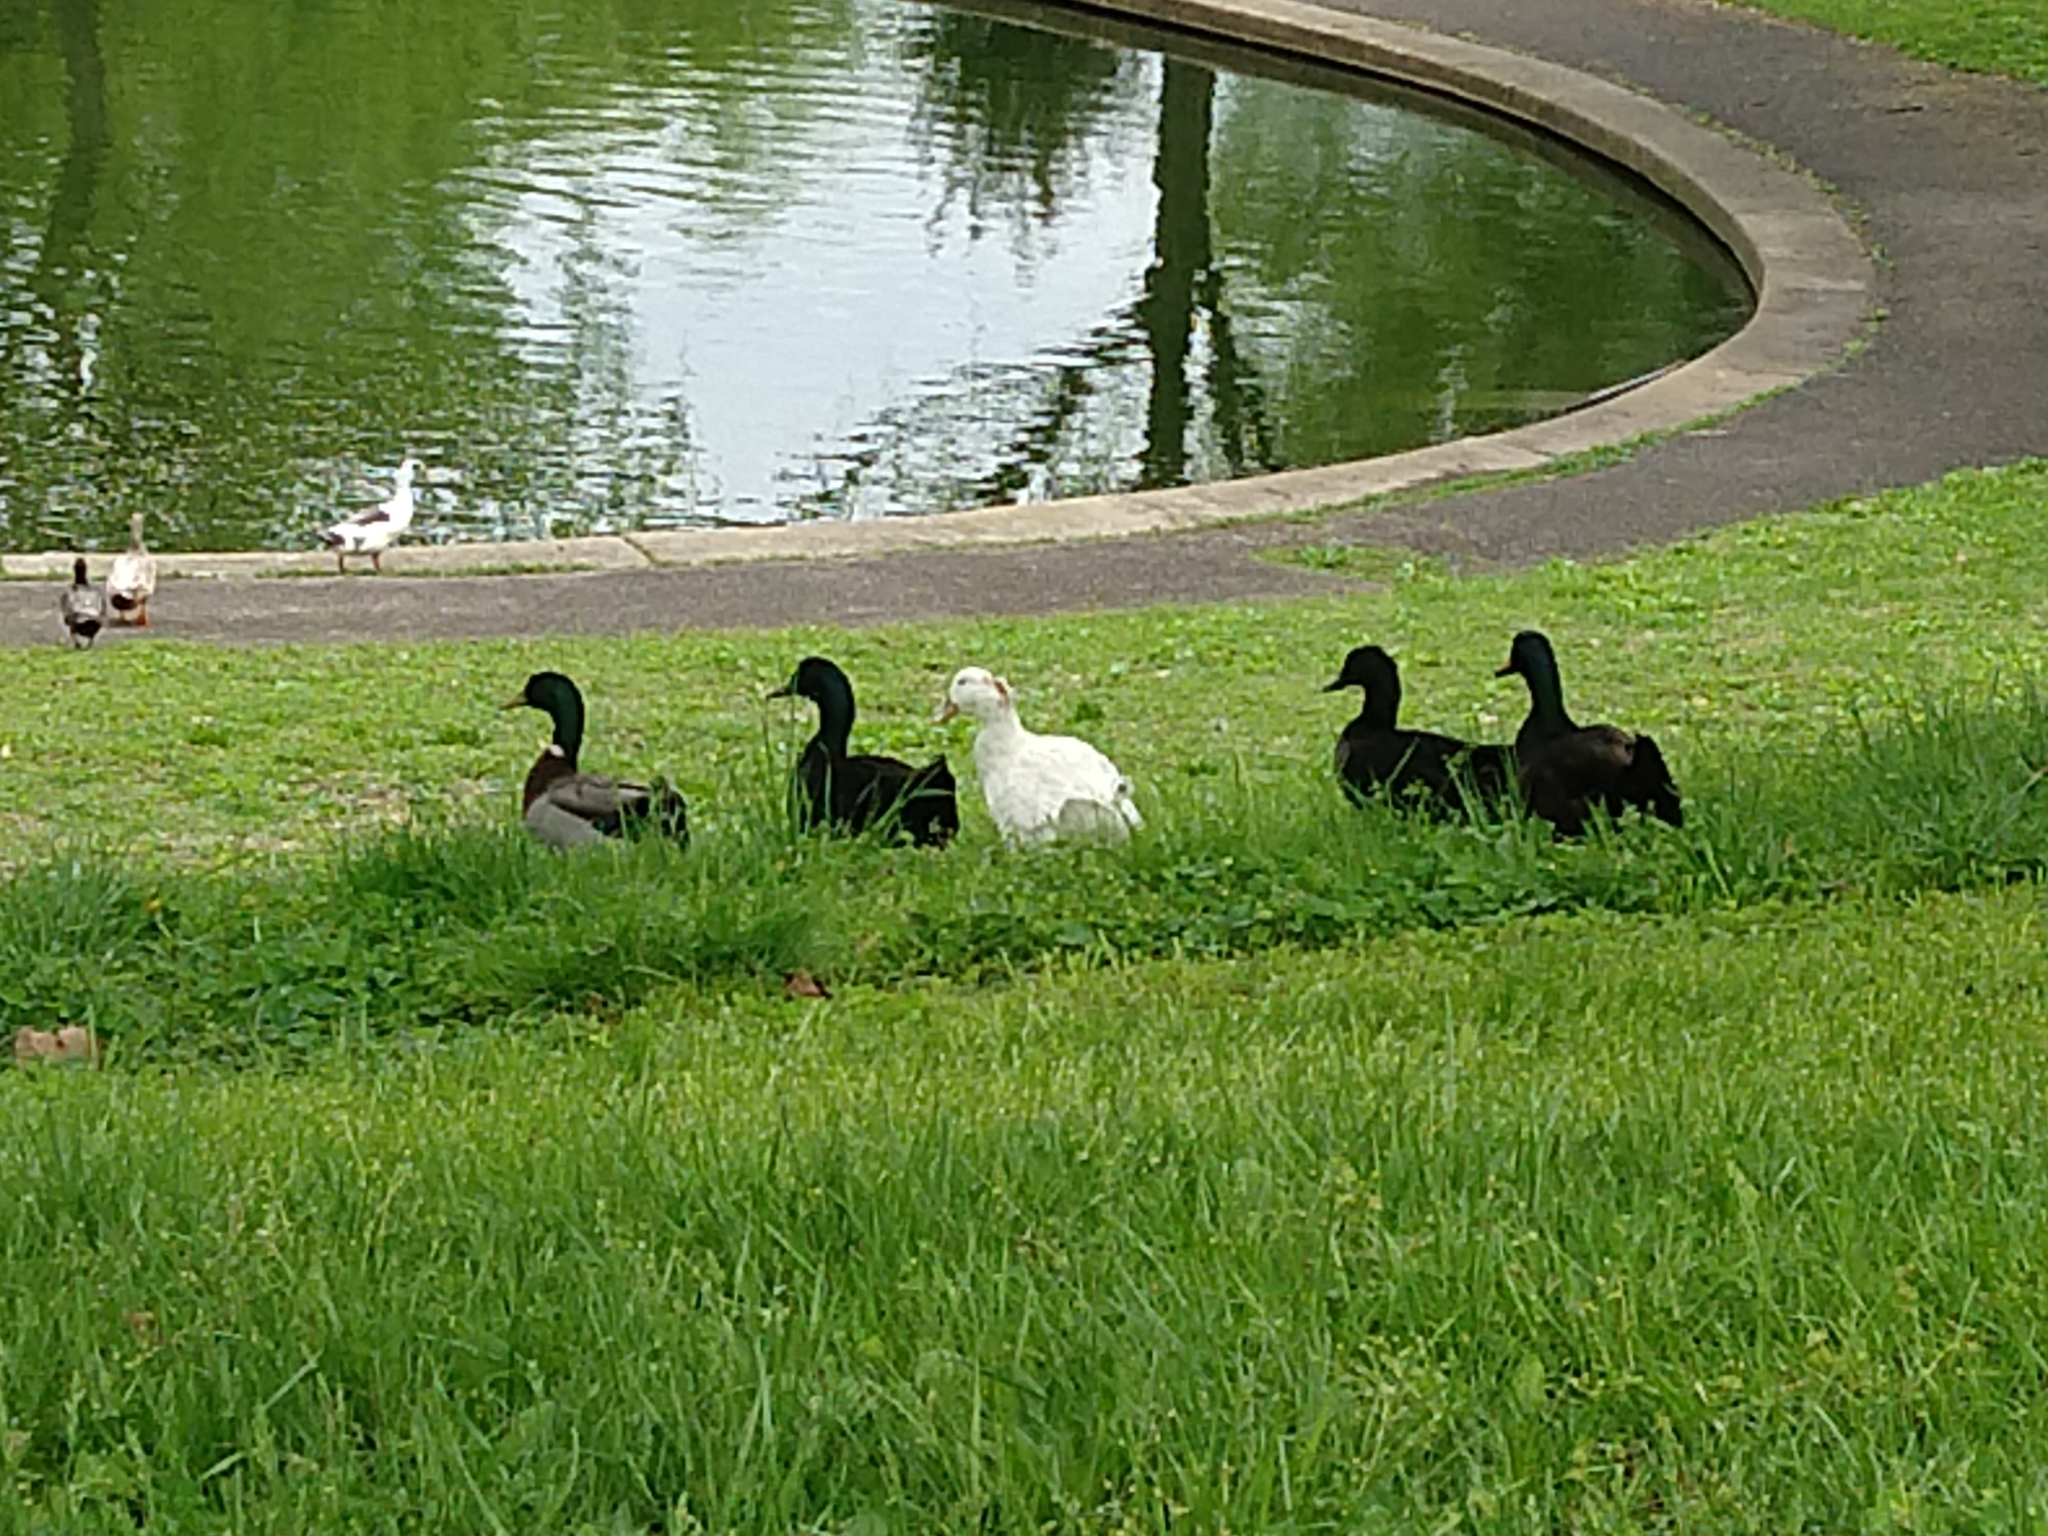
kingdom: Animalia
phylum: Chordata
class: Aves
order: Anseriformes
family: Anatidae
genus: Anas
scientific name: Anas platyrhynchos
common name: Mallard
